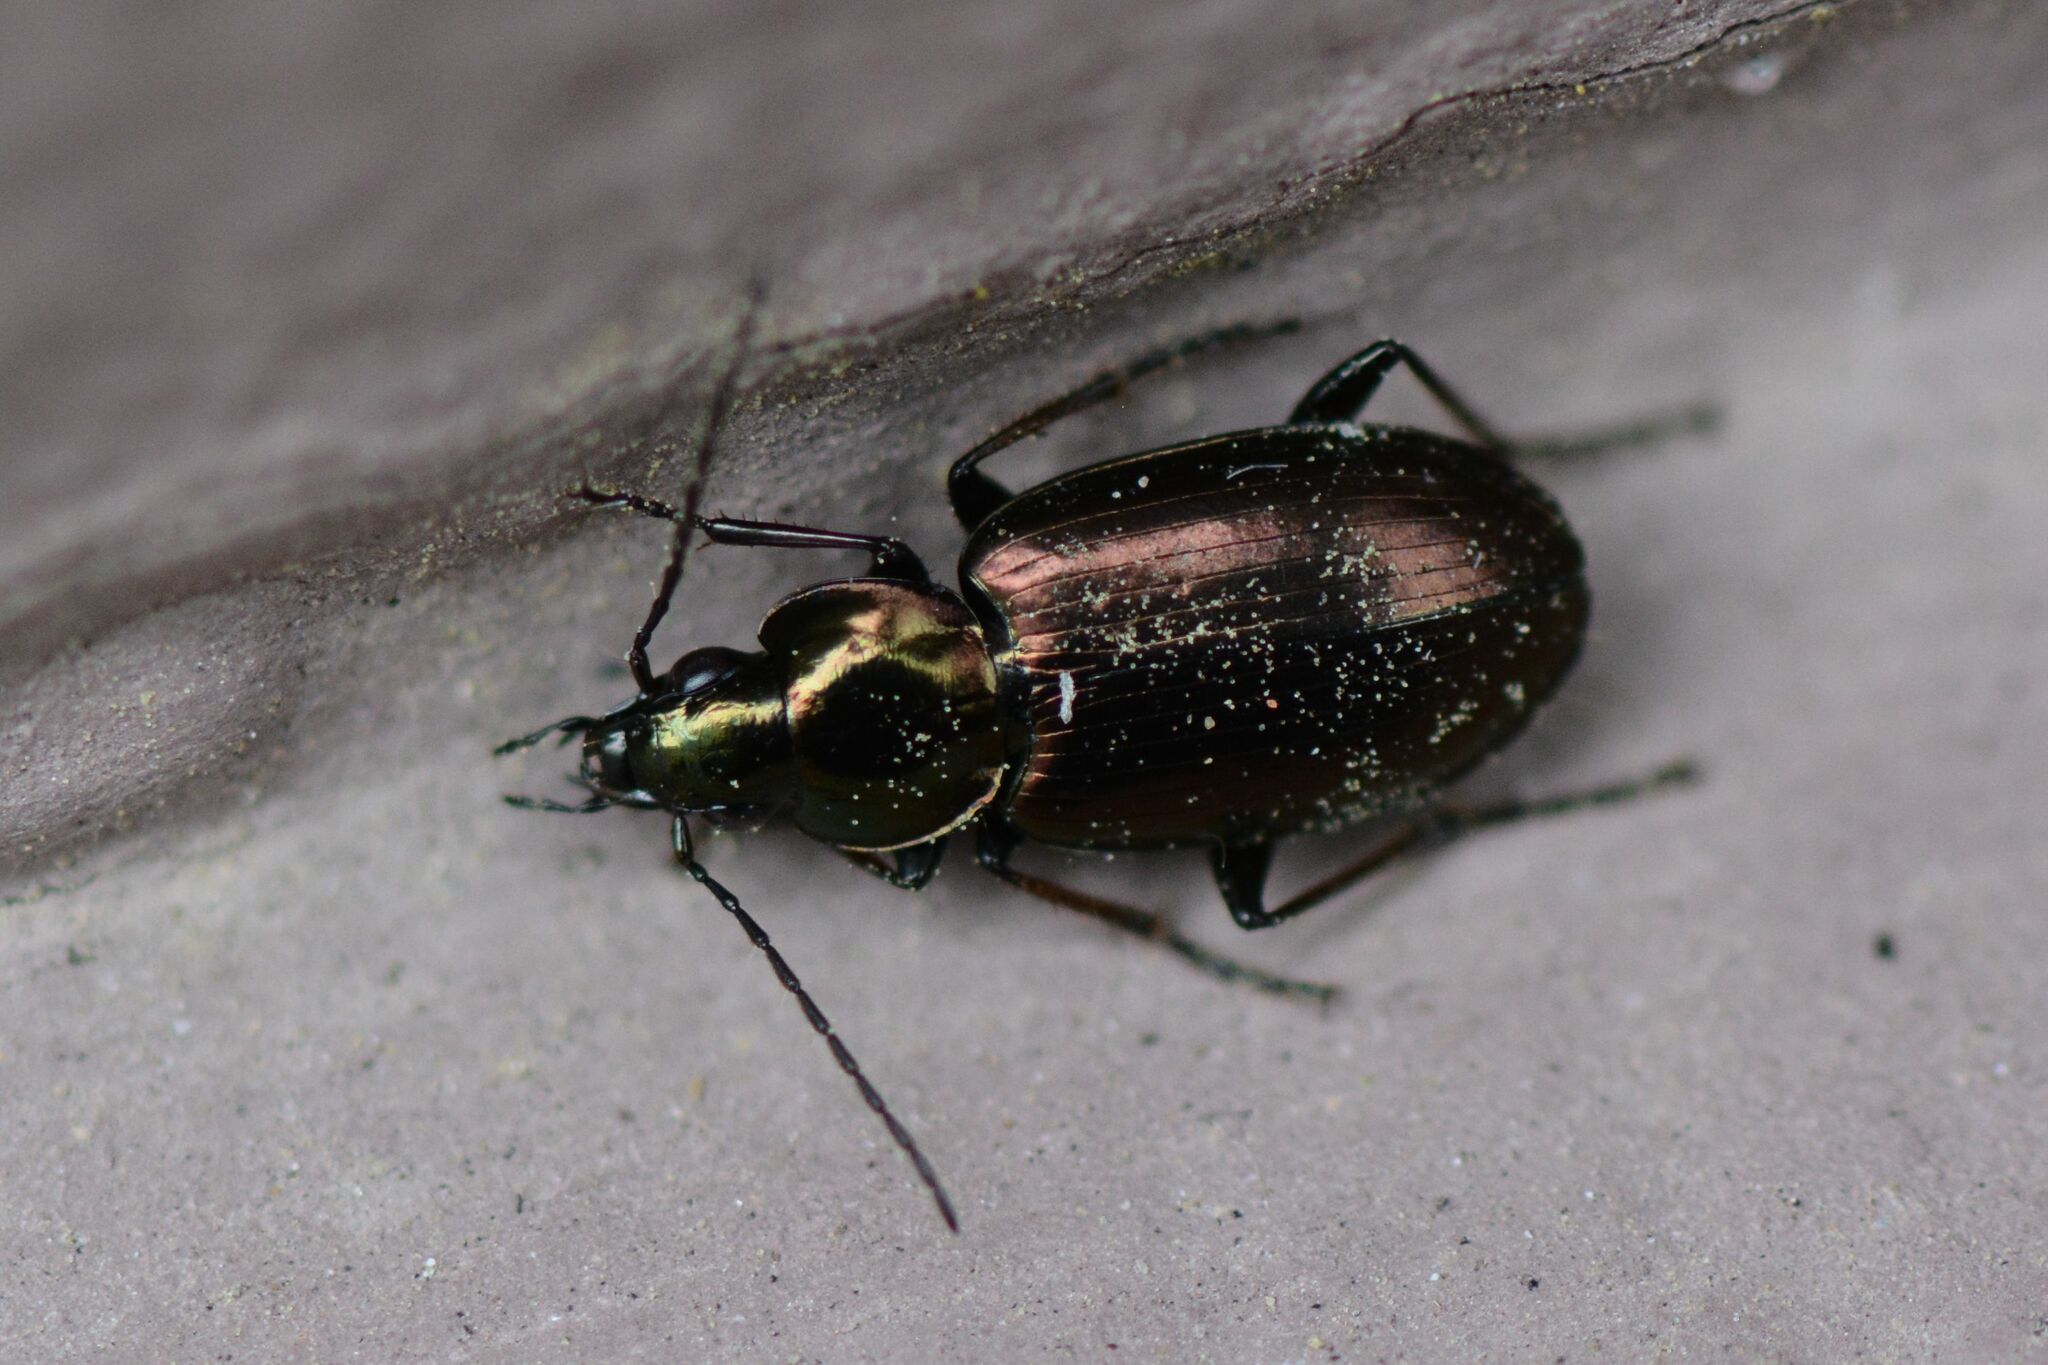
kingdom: Animalia
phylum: Arthropoda
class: Insecta
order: Coleoptera
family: Carabidae
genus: Agonum
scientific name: Agonum muelleri
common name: Müller's harp ground beetle
